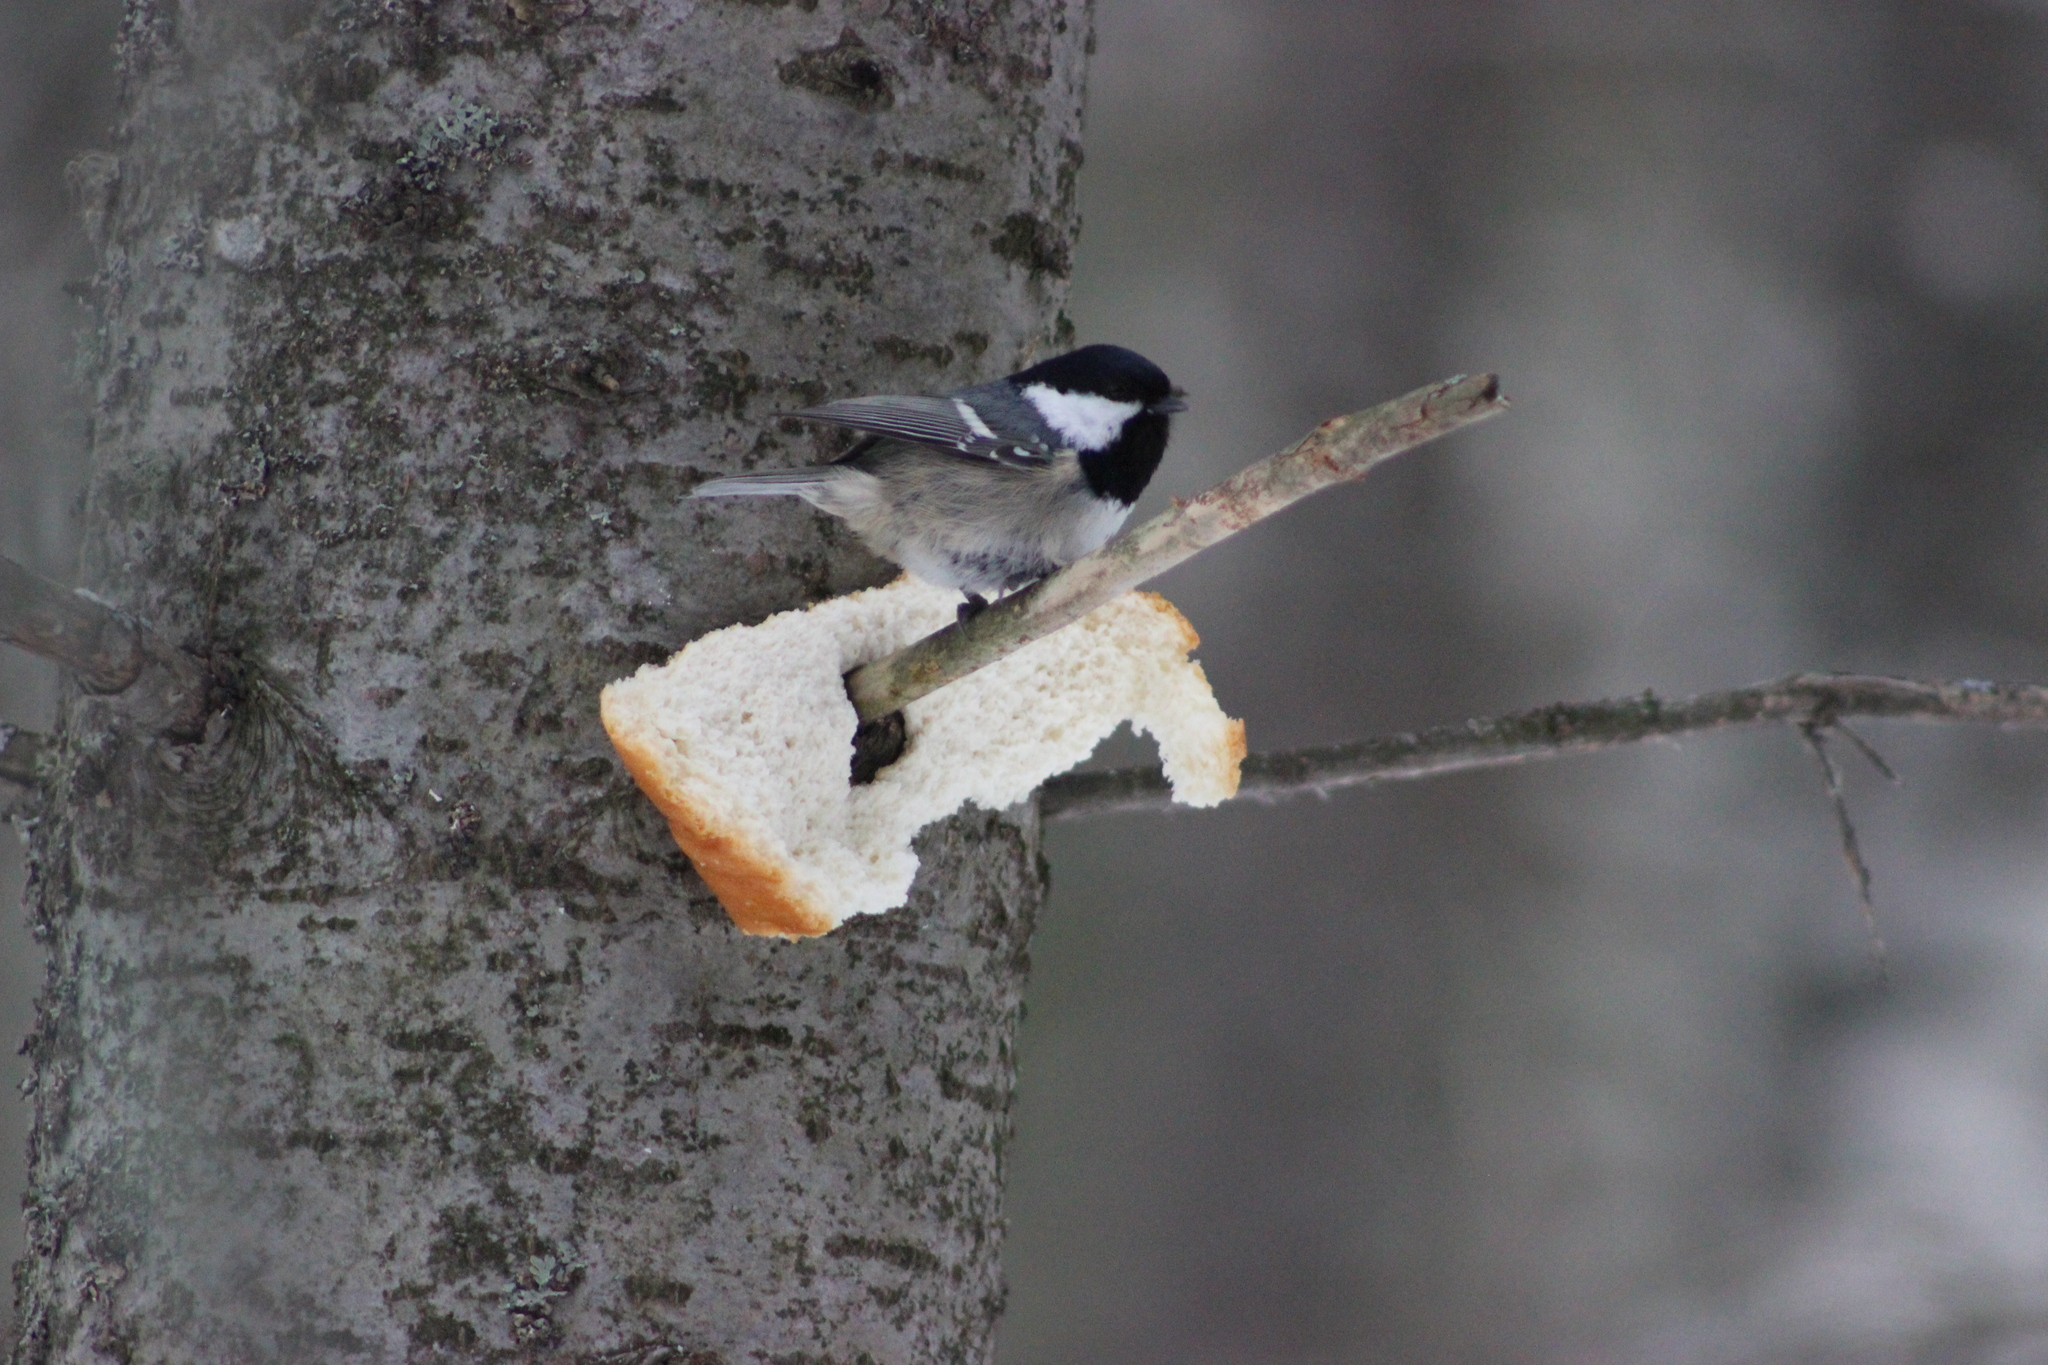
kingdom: Animalia
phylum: Chordata
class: Aves
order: Passeriformes
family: Paridae
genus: Periparus
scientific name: Periparus ater
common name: Coal tit
